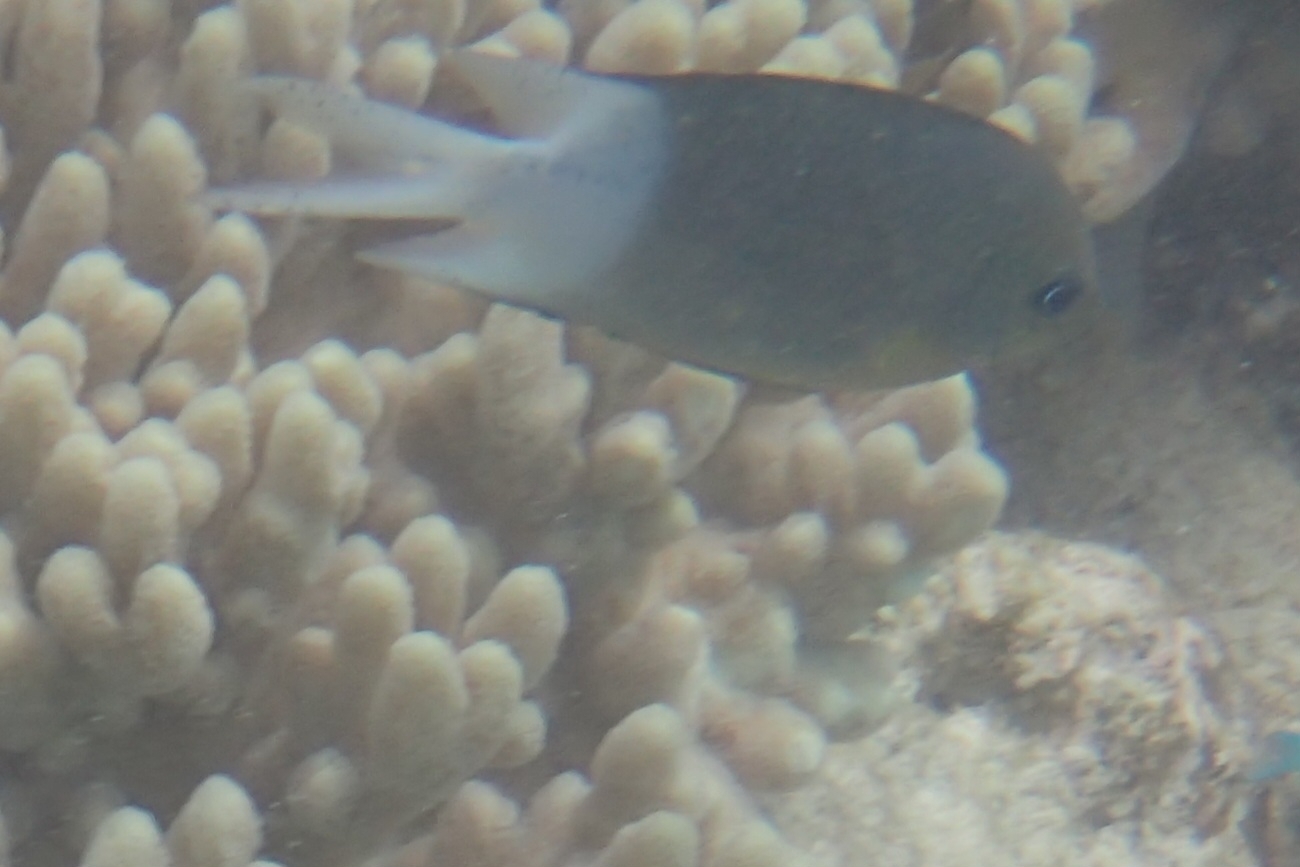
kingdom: Animalia
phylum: Chordata
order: Perciformes
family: Pomacentridae
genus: Acanthochromis
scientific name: Acanthochromis polyacanthus
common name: Spiny chromis
